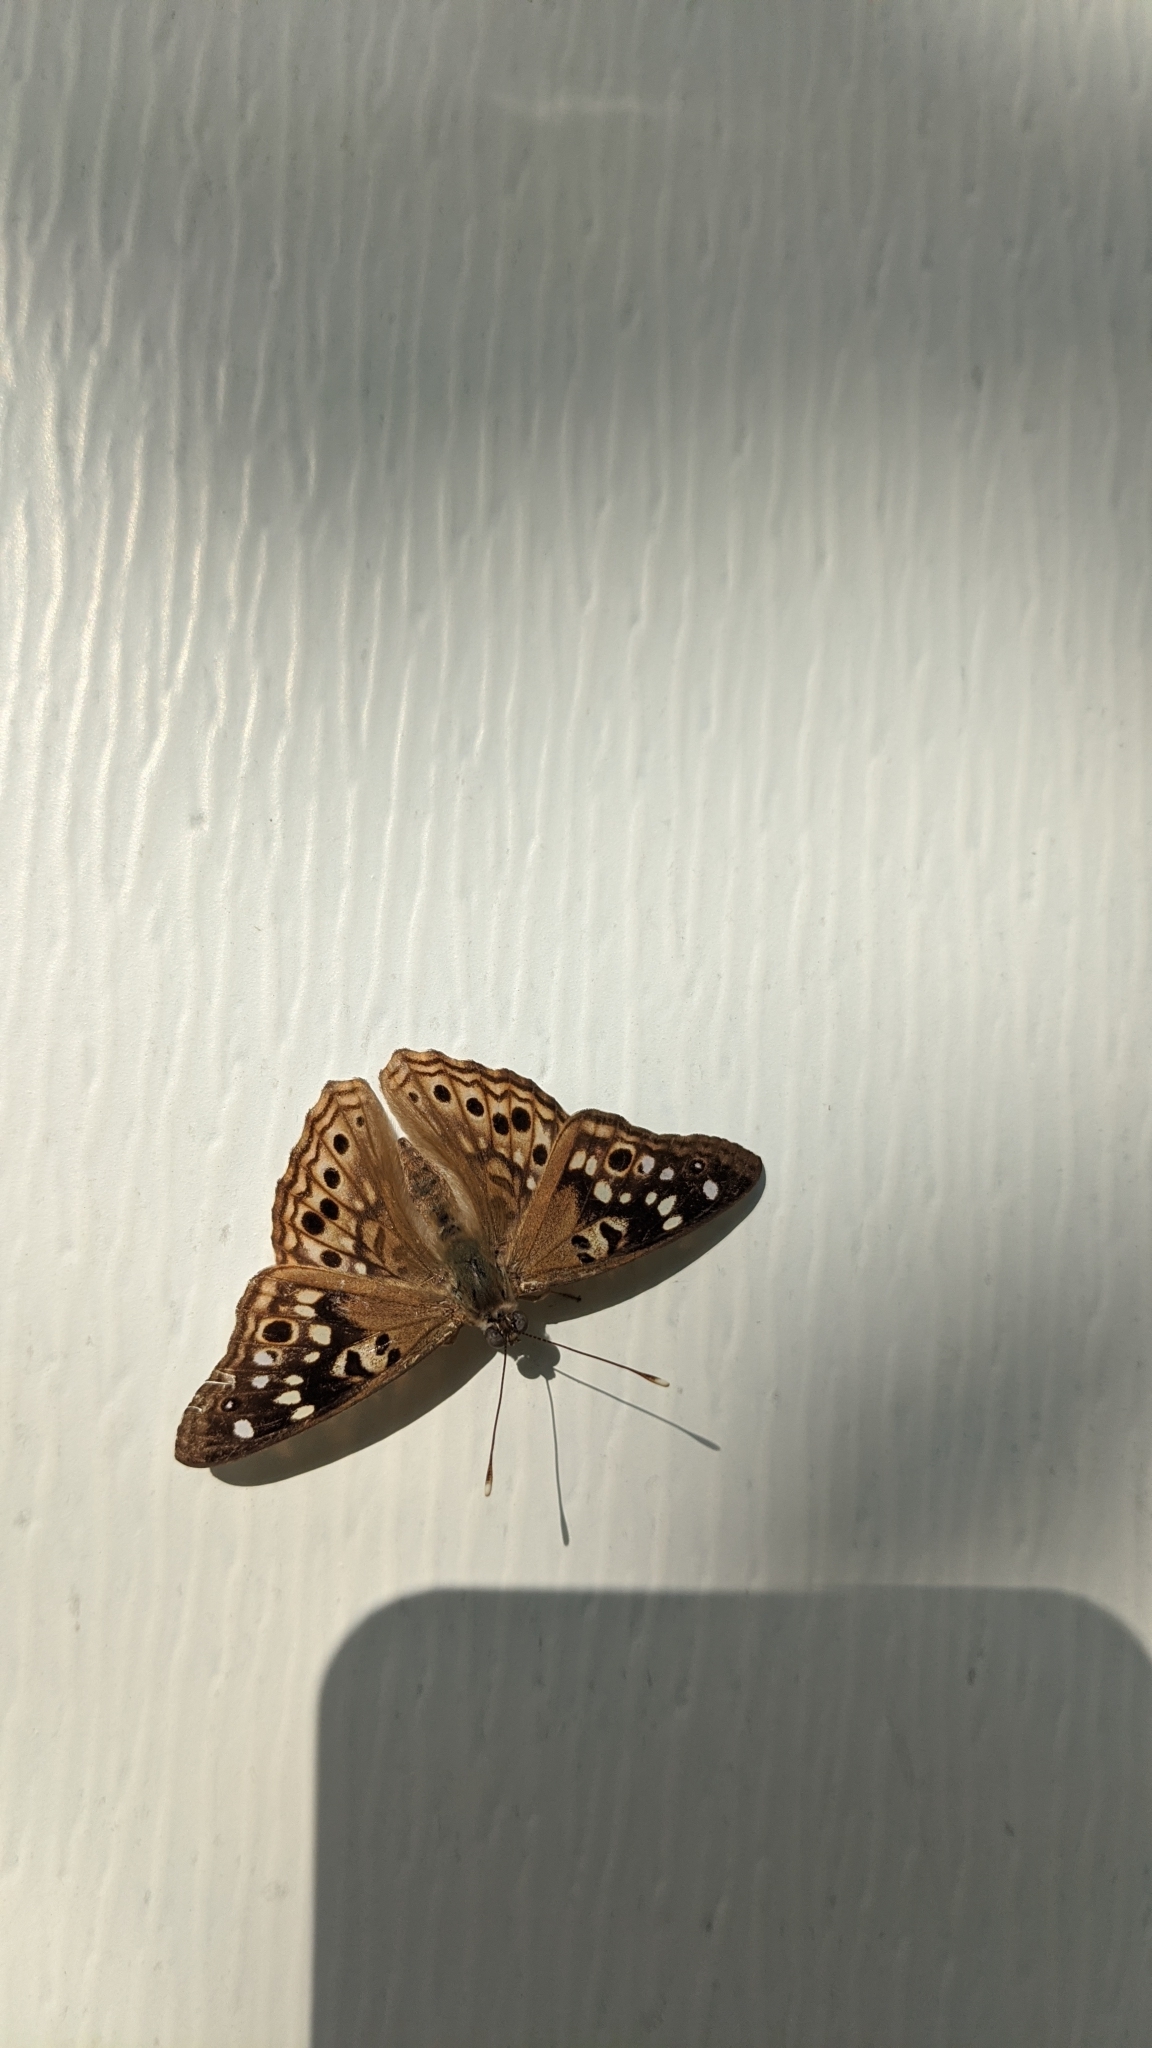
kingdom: Animalia
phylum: Arthropoda
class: Insecta
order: Lepidoptera
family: Nymphalidae
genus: Asterocampa
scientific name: Asterocampa celtis
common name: Hackberry emperor
